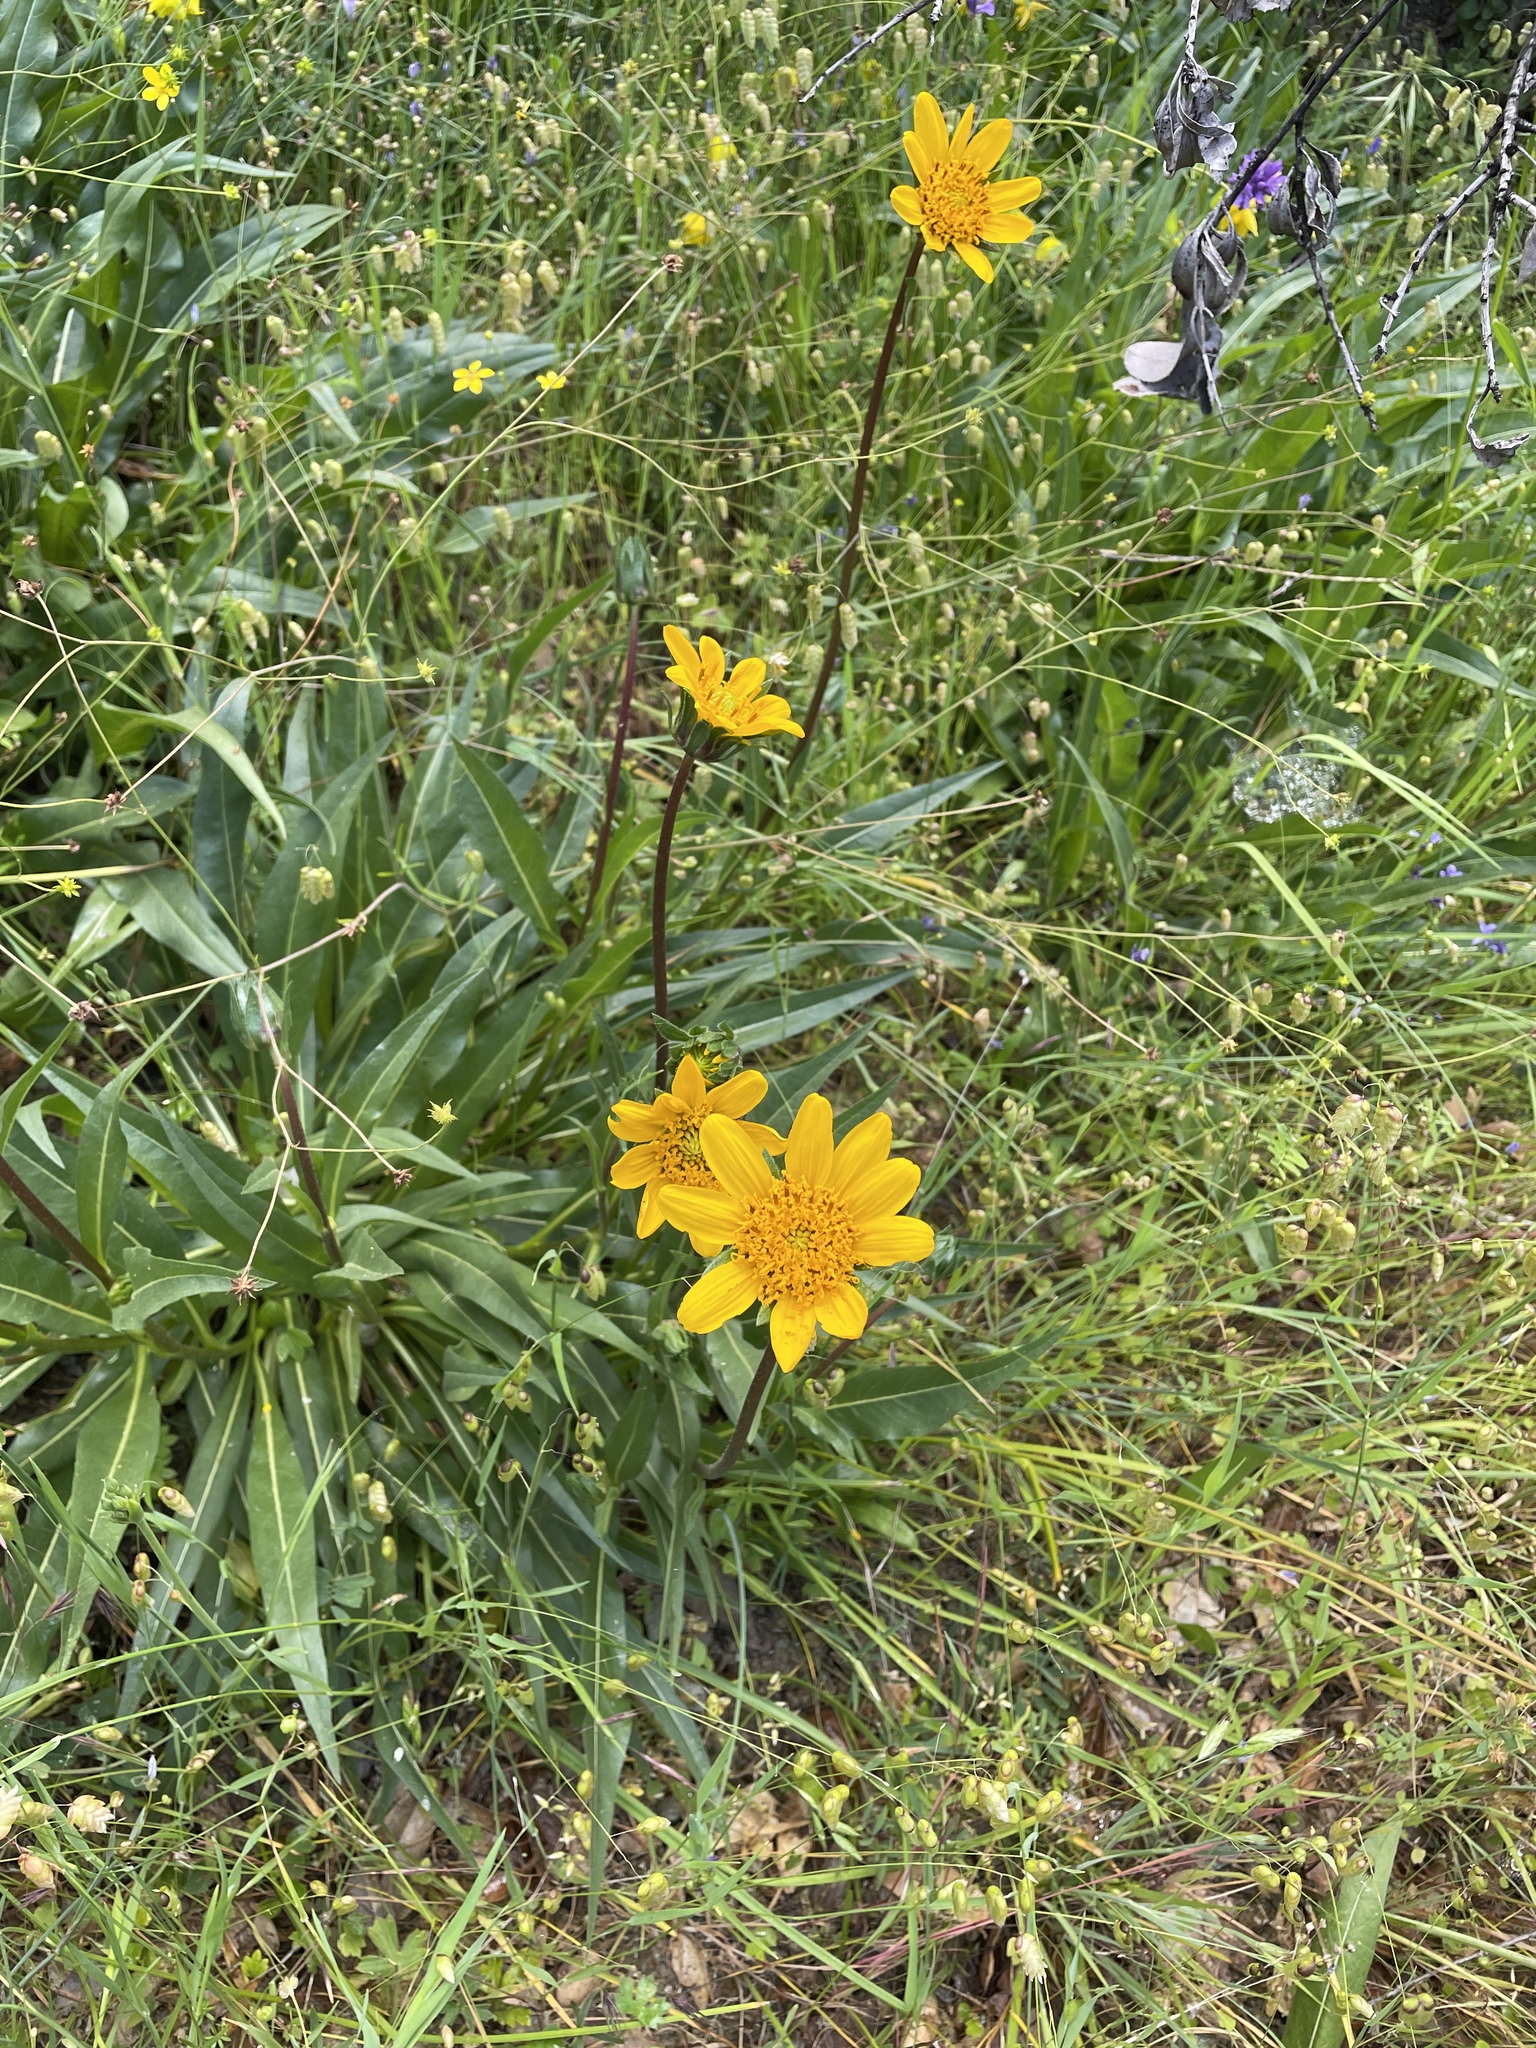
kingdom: Plantae
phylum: Tracheophyta
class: Magnoliopsida
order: Asterales
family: Asteraceae
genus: Wyethia
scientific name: Wyethia angustifolia
